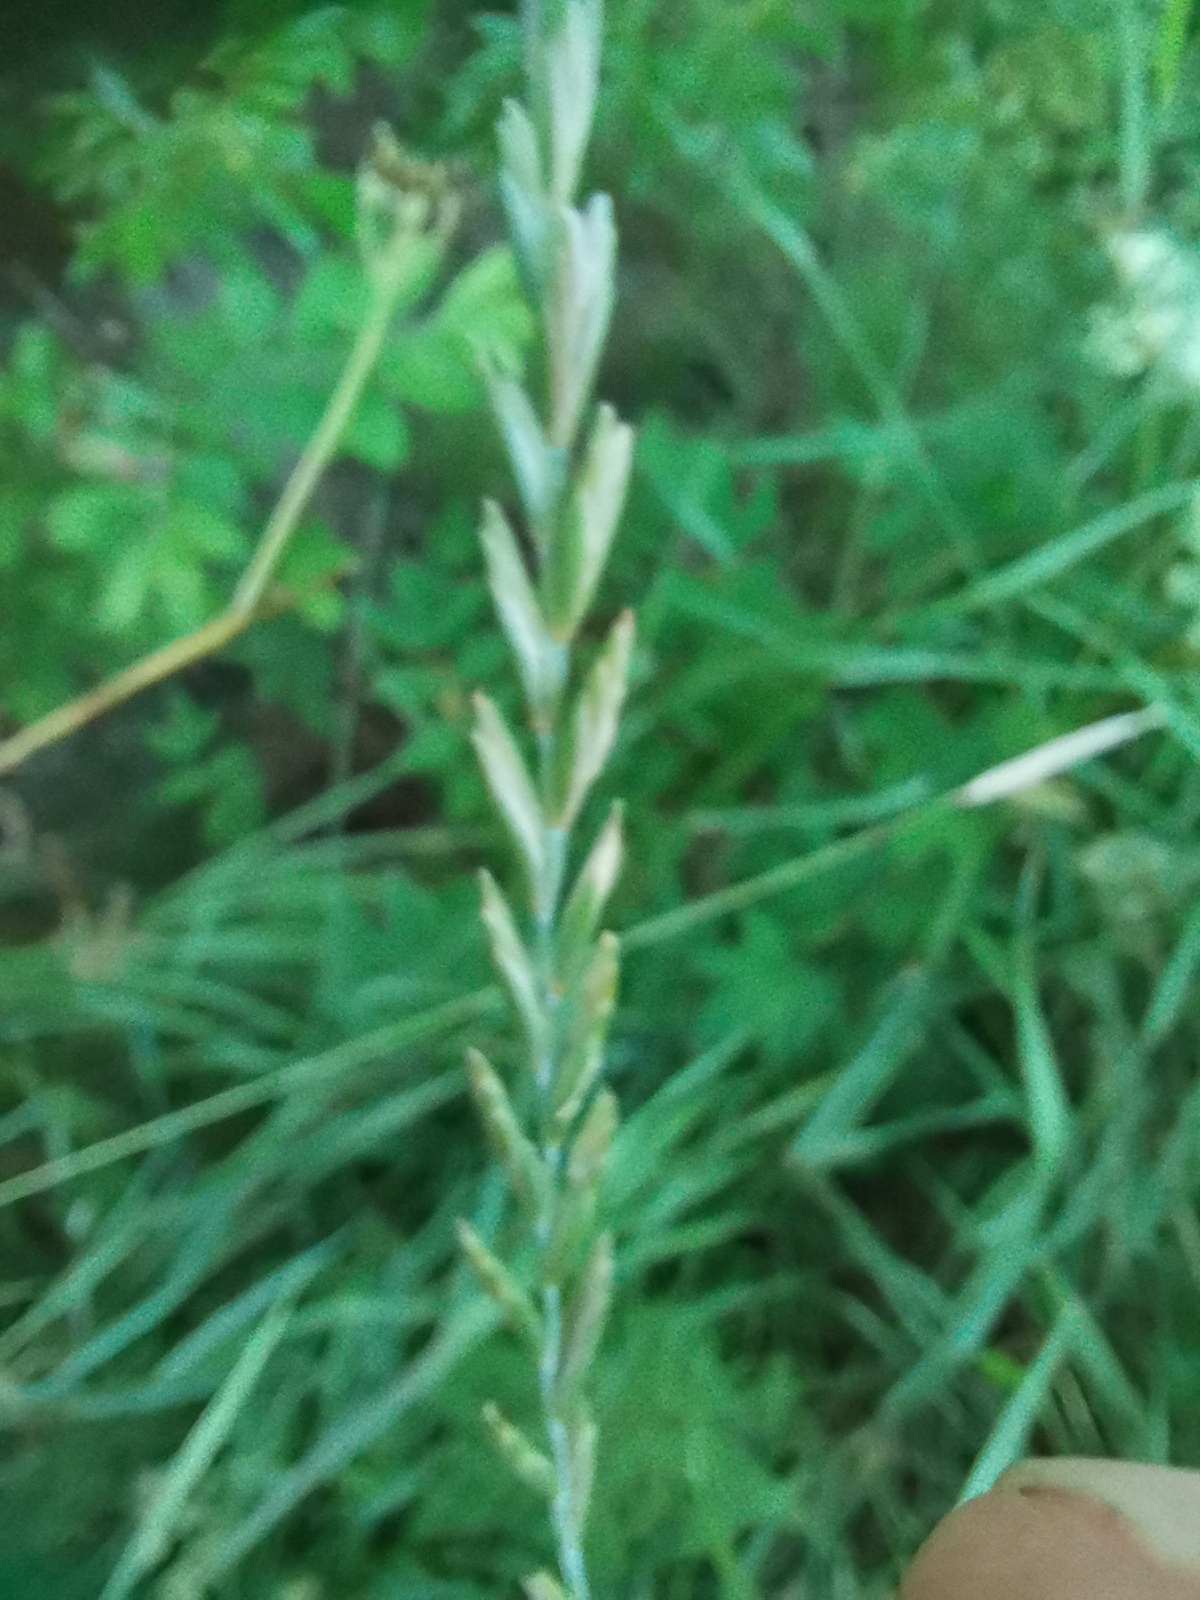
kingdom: Plantae
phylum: Tracheophyta
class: Liliopsida
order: Poales
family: Poaceae
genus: Elymus
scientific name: Elymus repens
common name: Quackgrass
